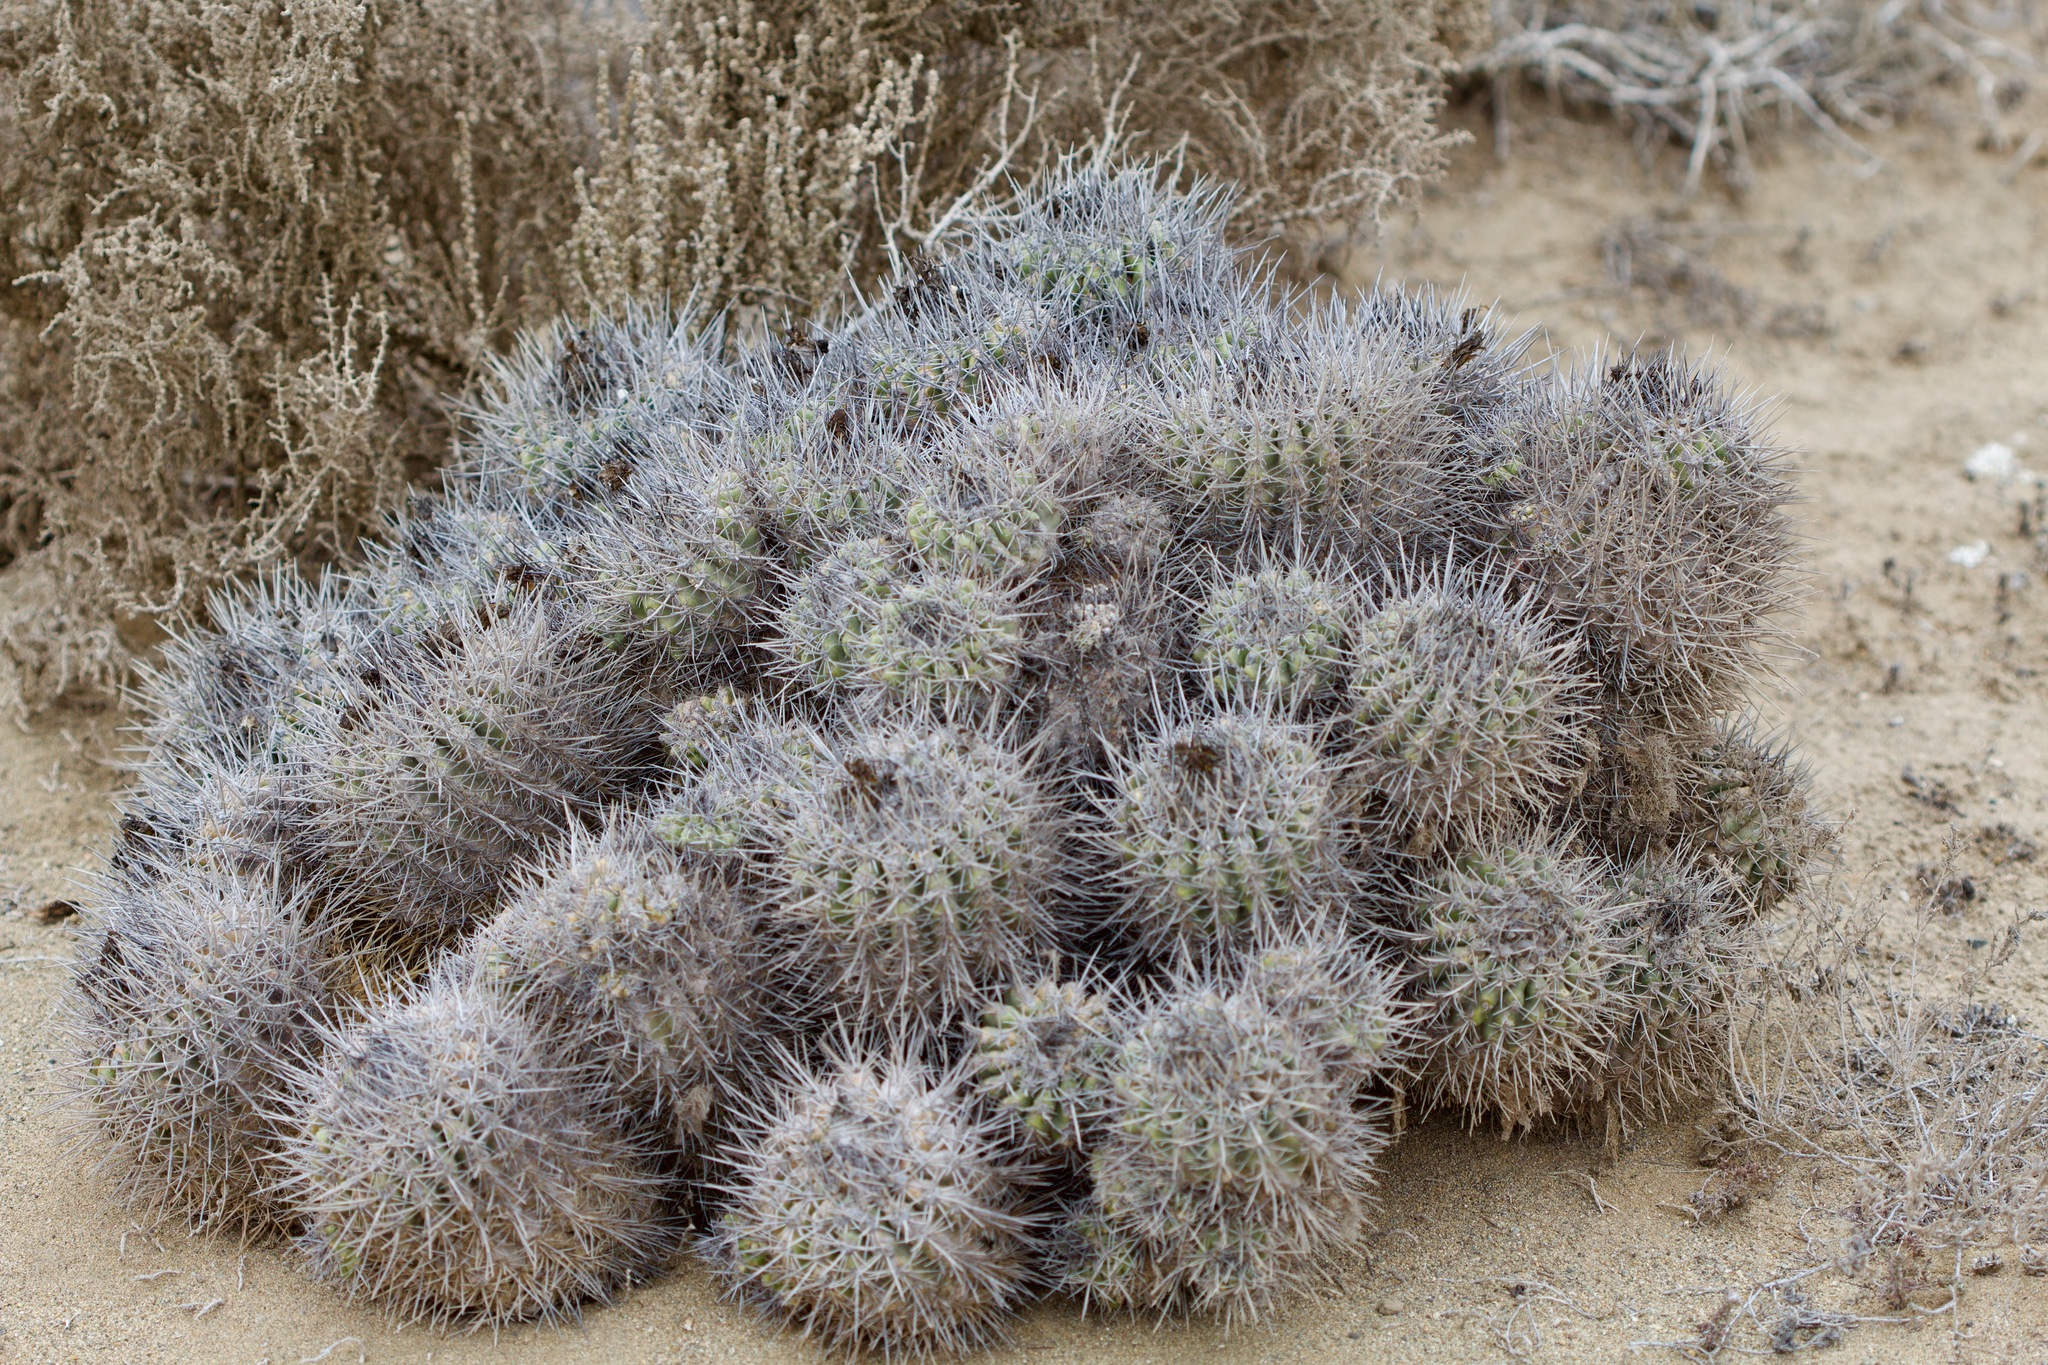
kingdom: Plantae
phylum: Tracheophyta
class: Magnoliopsida
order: Caryophyllales
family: Cactaceae
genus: Copiapoa
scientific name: Copiapoa coquimbana
